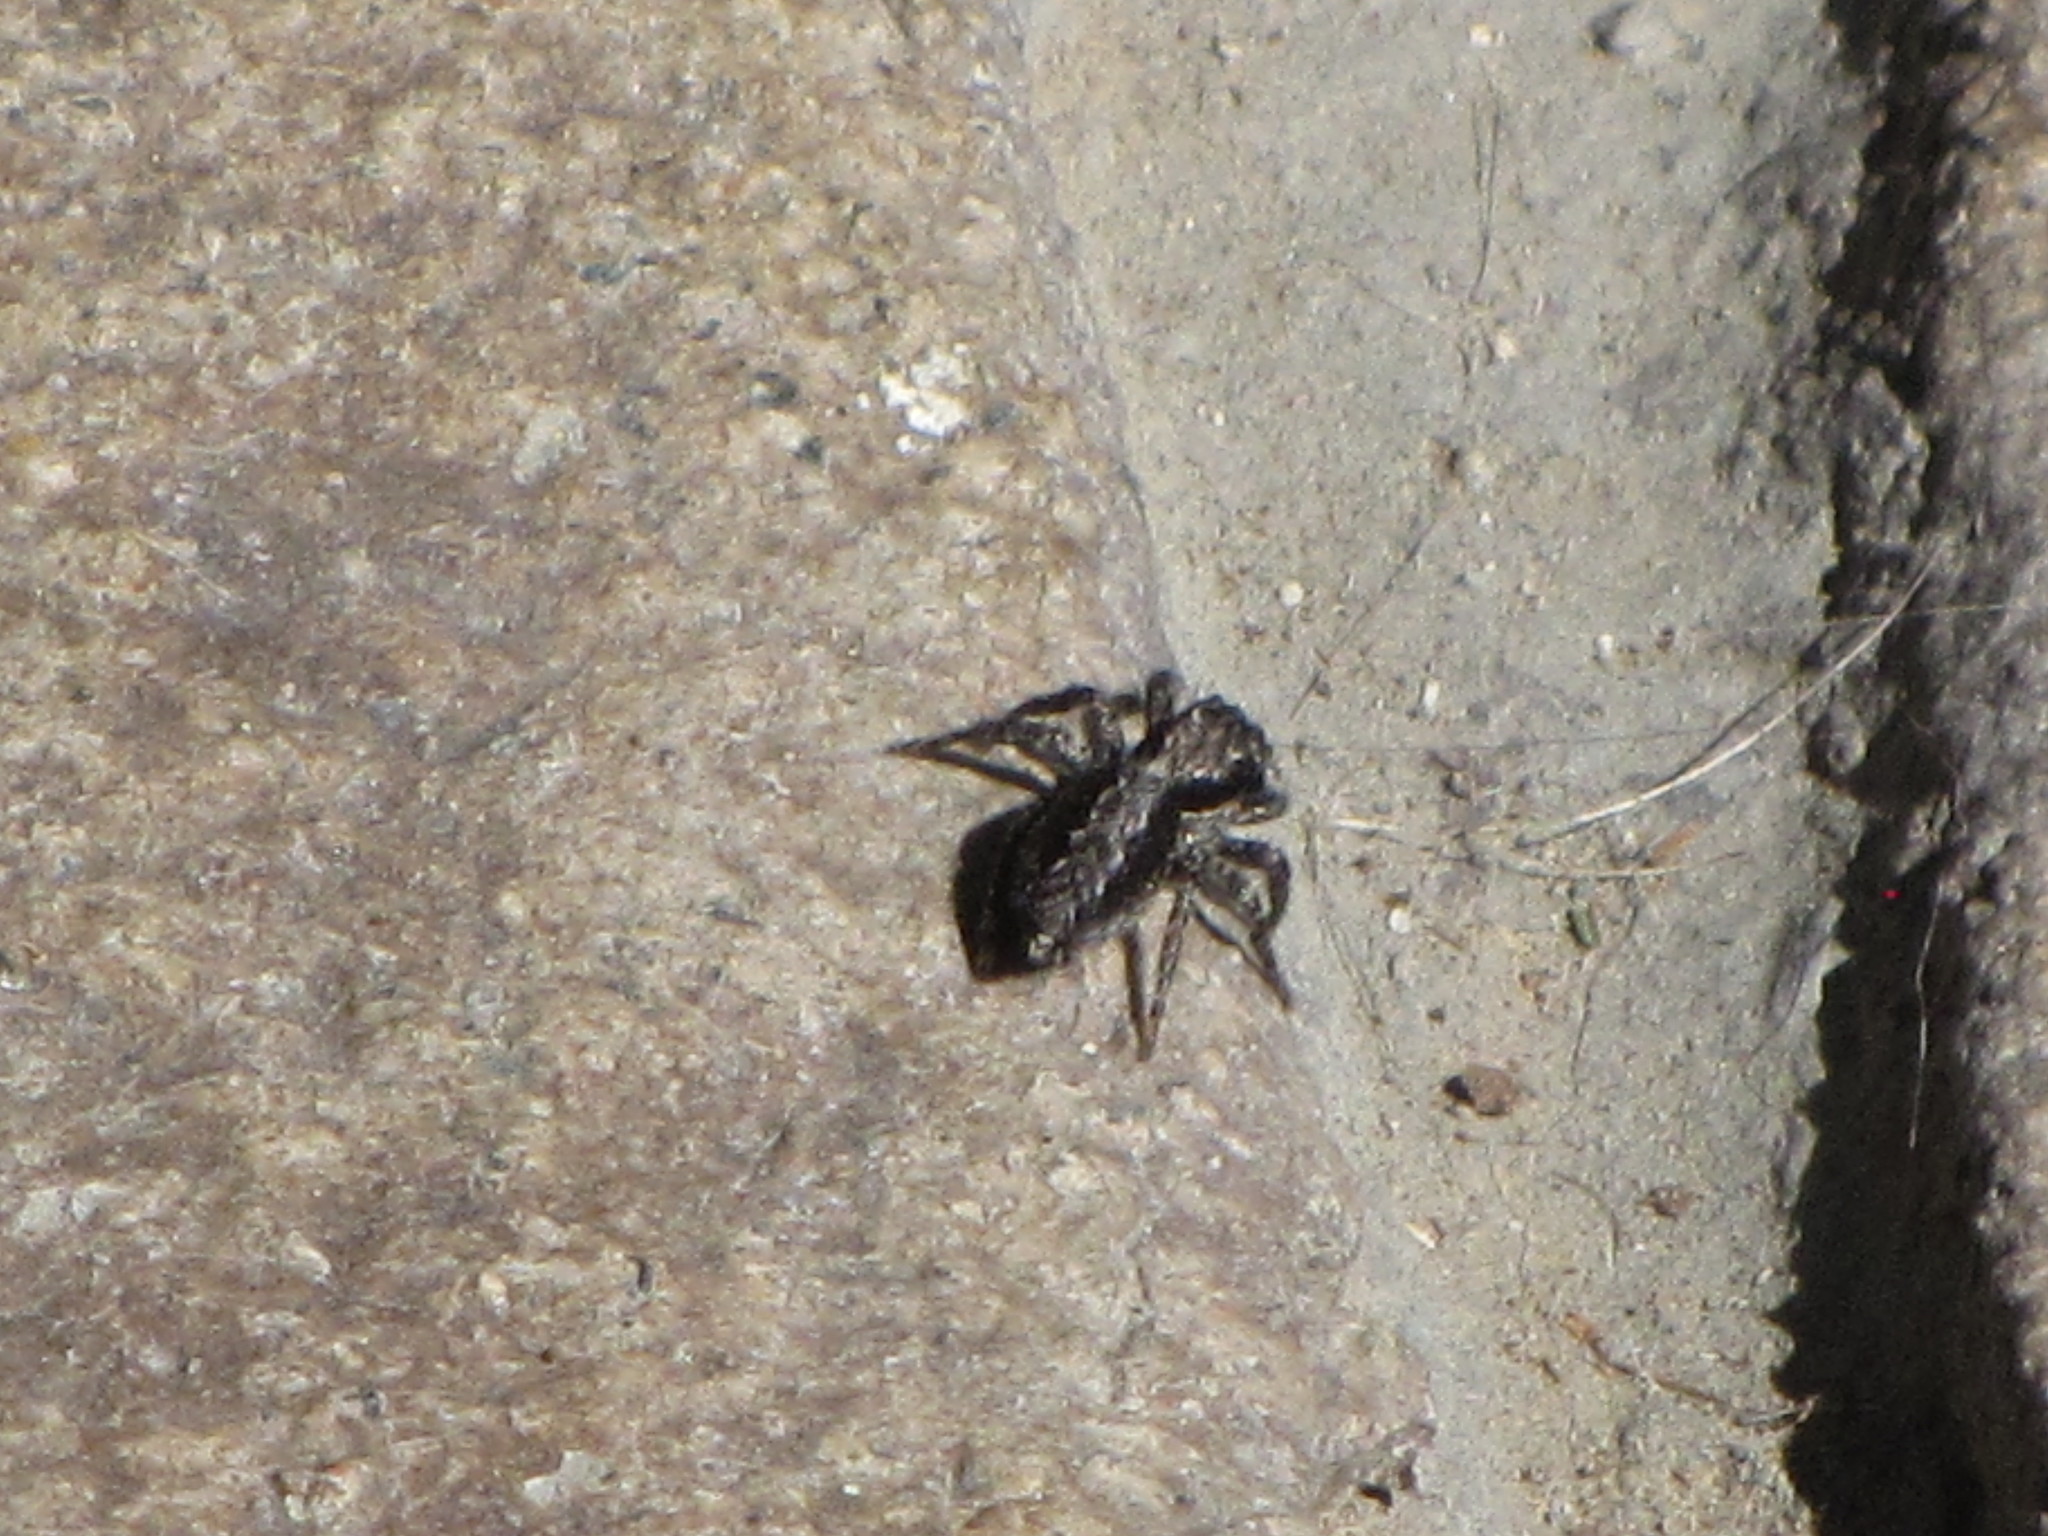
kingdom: Animalia
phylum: Arthropoda
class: Arachnida
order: Araneae
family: Salticidae
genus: Platycryptus
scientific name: Platycryptus californicus
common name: Jumping spiders
